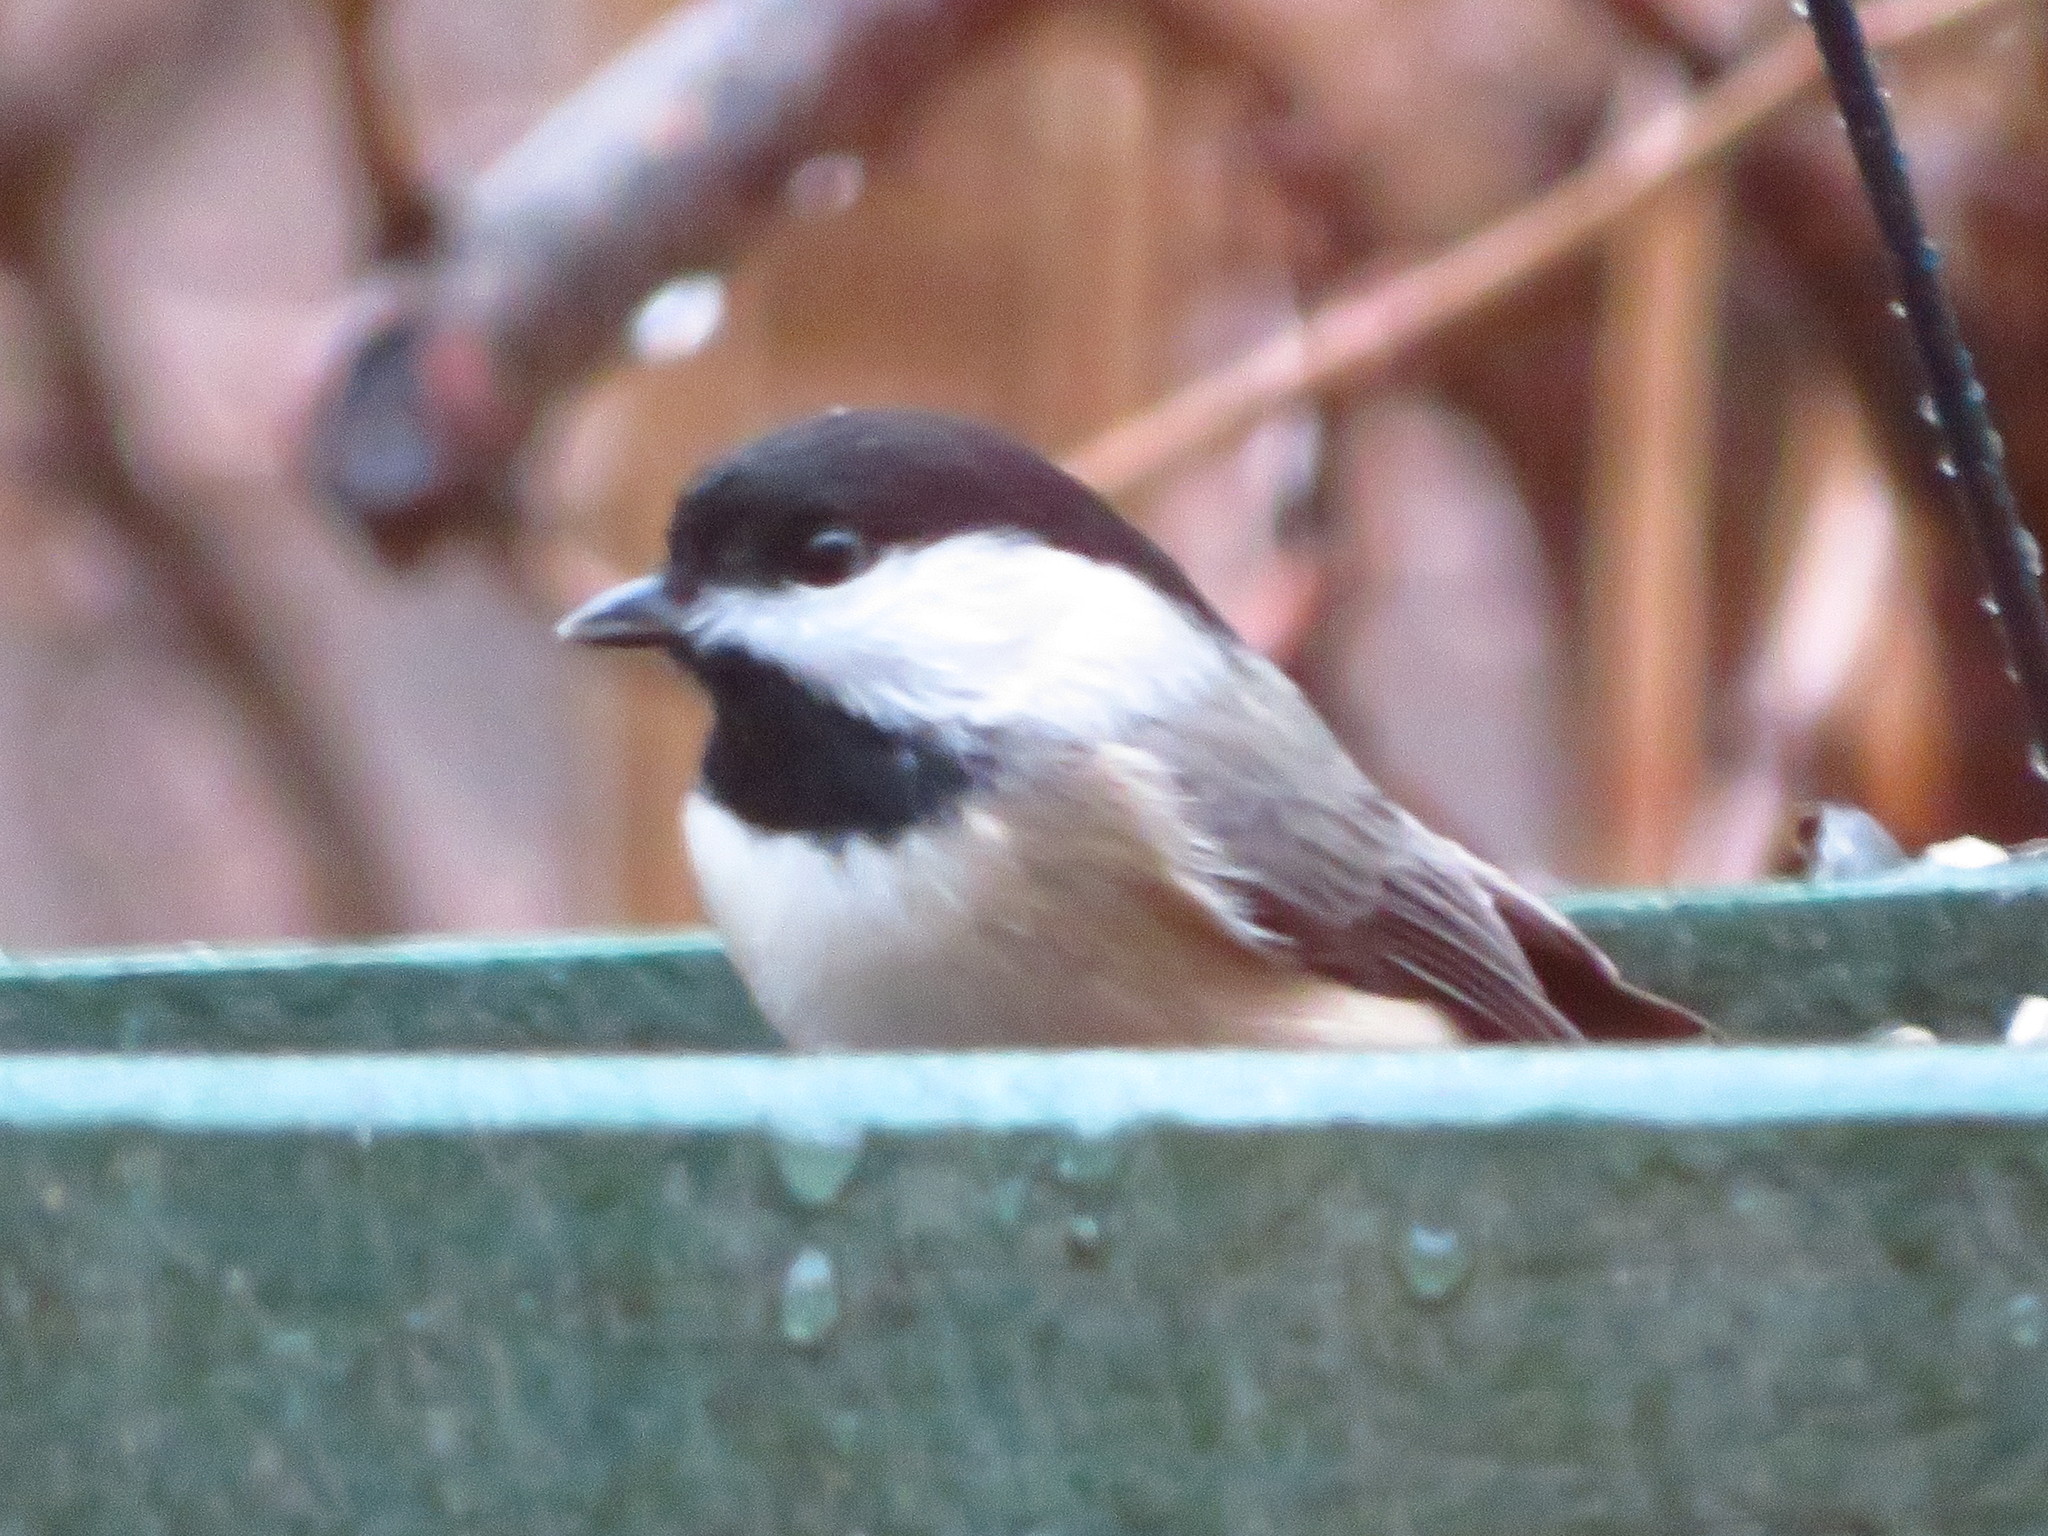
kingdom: Animalia
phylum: Chordata
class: Aves
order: Passeriformes
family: Paridae
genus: Poecile
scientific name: Poecile carolinensis
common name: Carolina chickadee
